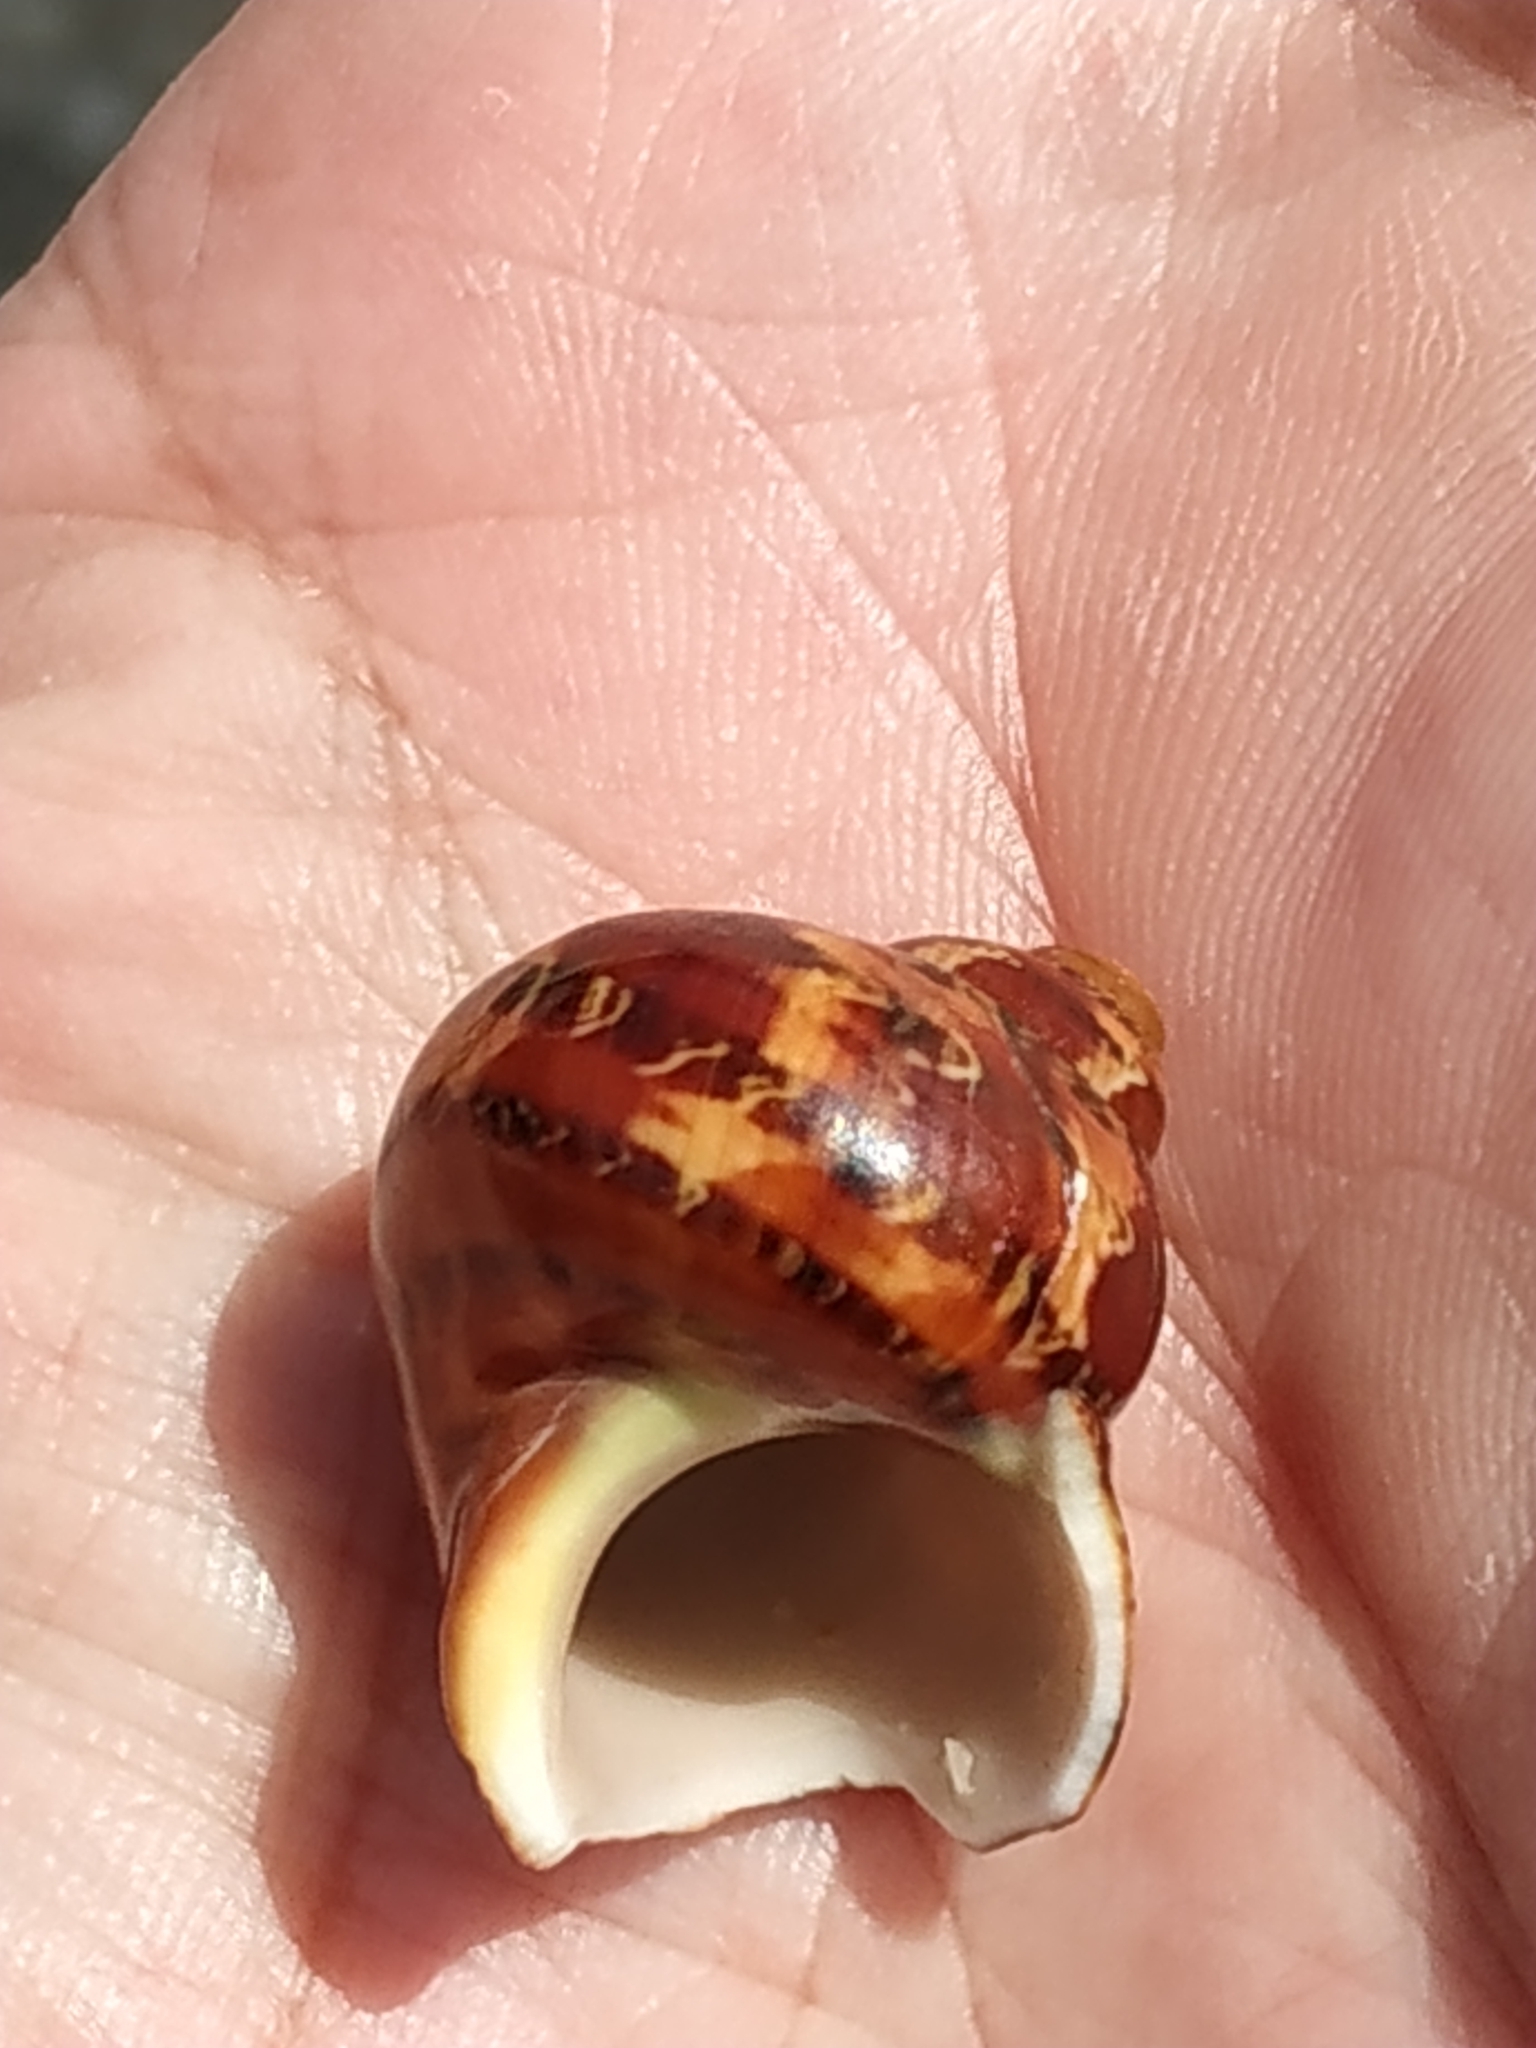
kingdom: Animalia
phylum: Mollusca
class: Gastropoda
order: Trochida
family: Turbinidae
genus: Turbo
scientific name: Turbo petholatus
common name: Cat's-eye shell
